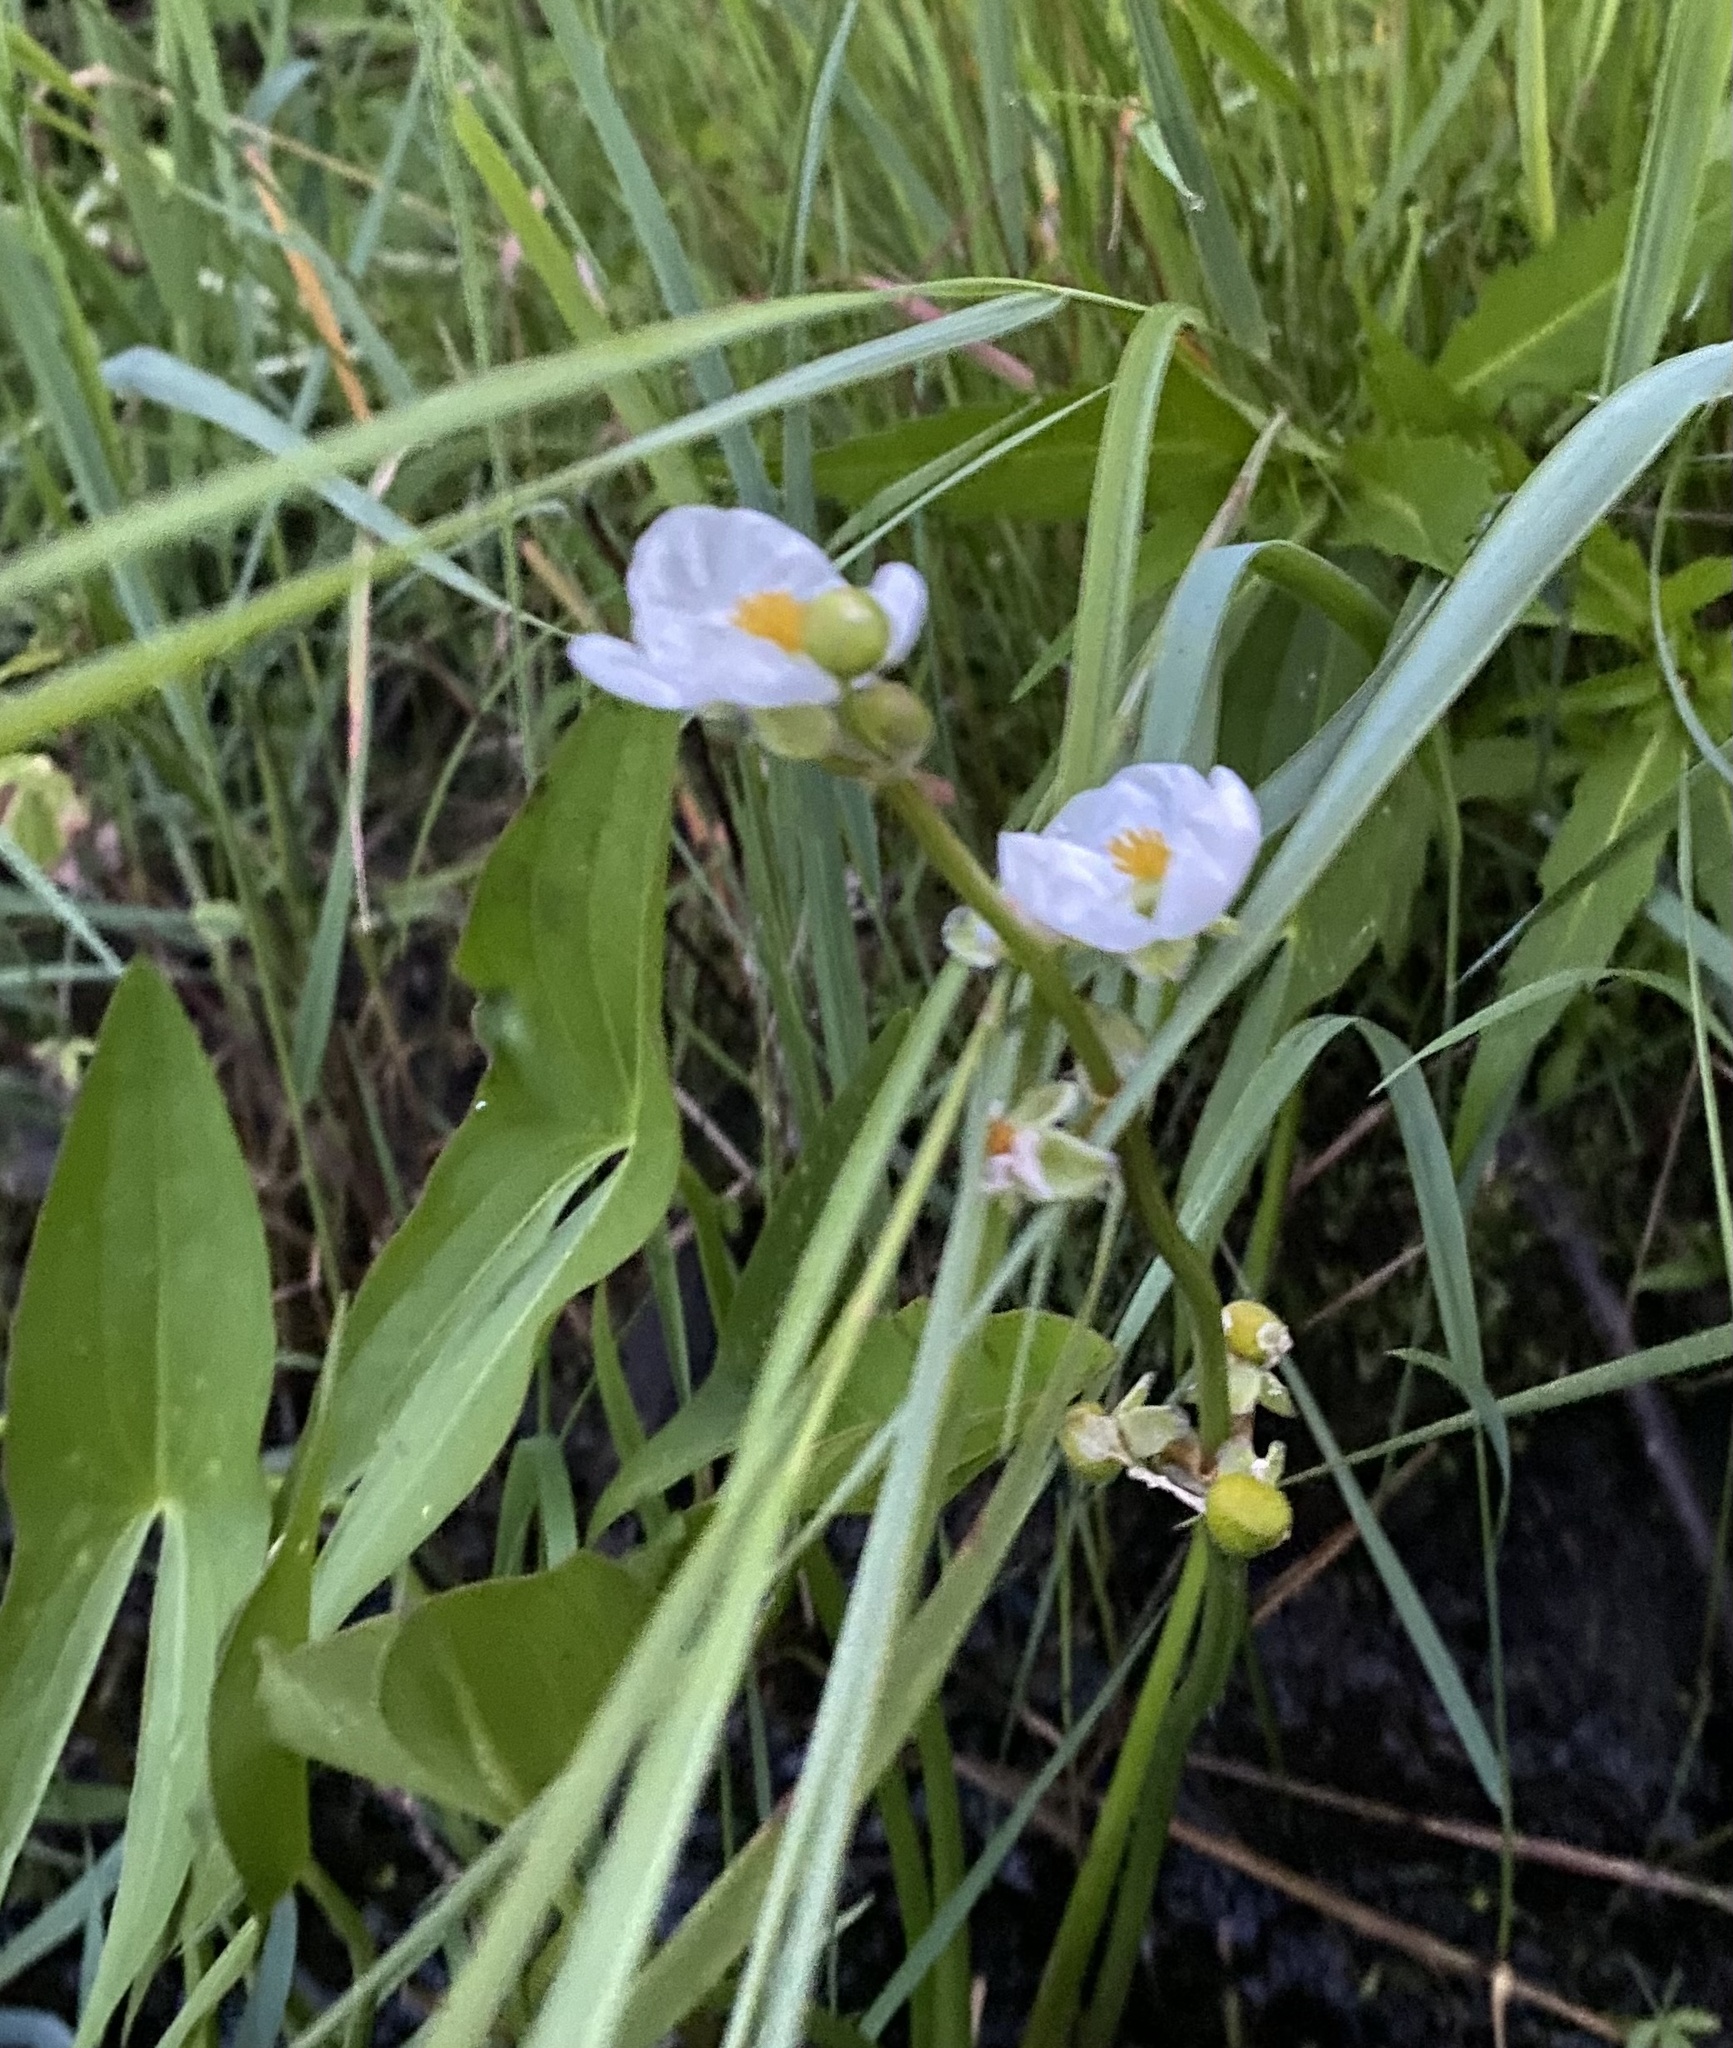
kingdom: Plantae
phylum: Tracheophyta
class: Liliopsida
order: Alismatales
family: Alismataceae
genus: Sagittaria
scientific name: Sagittaria latifolia
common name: Duck-potato
